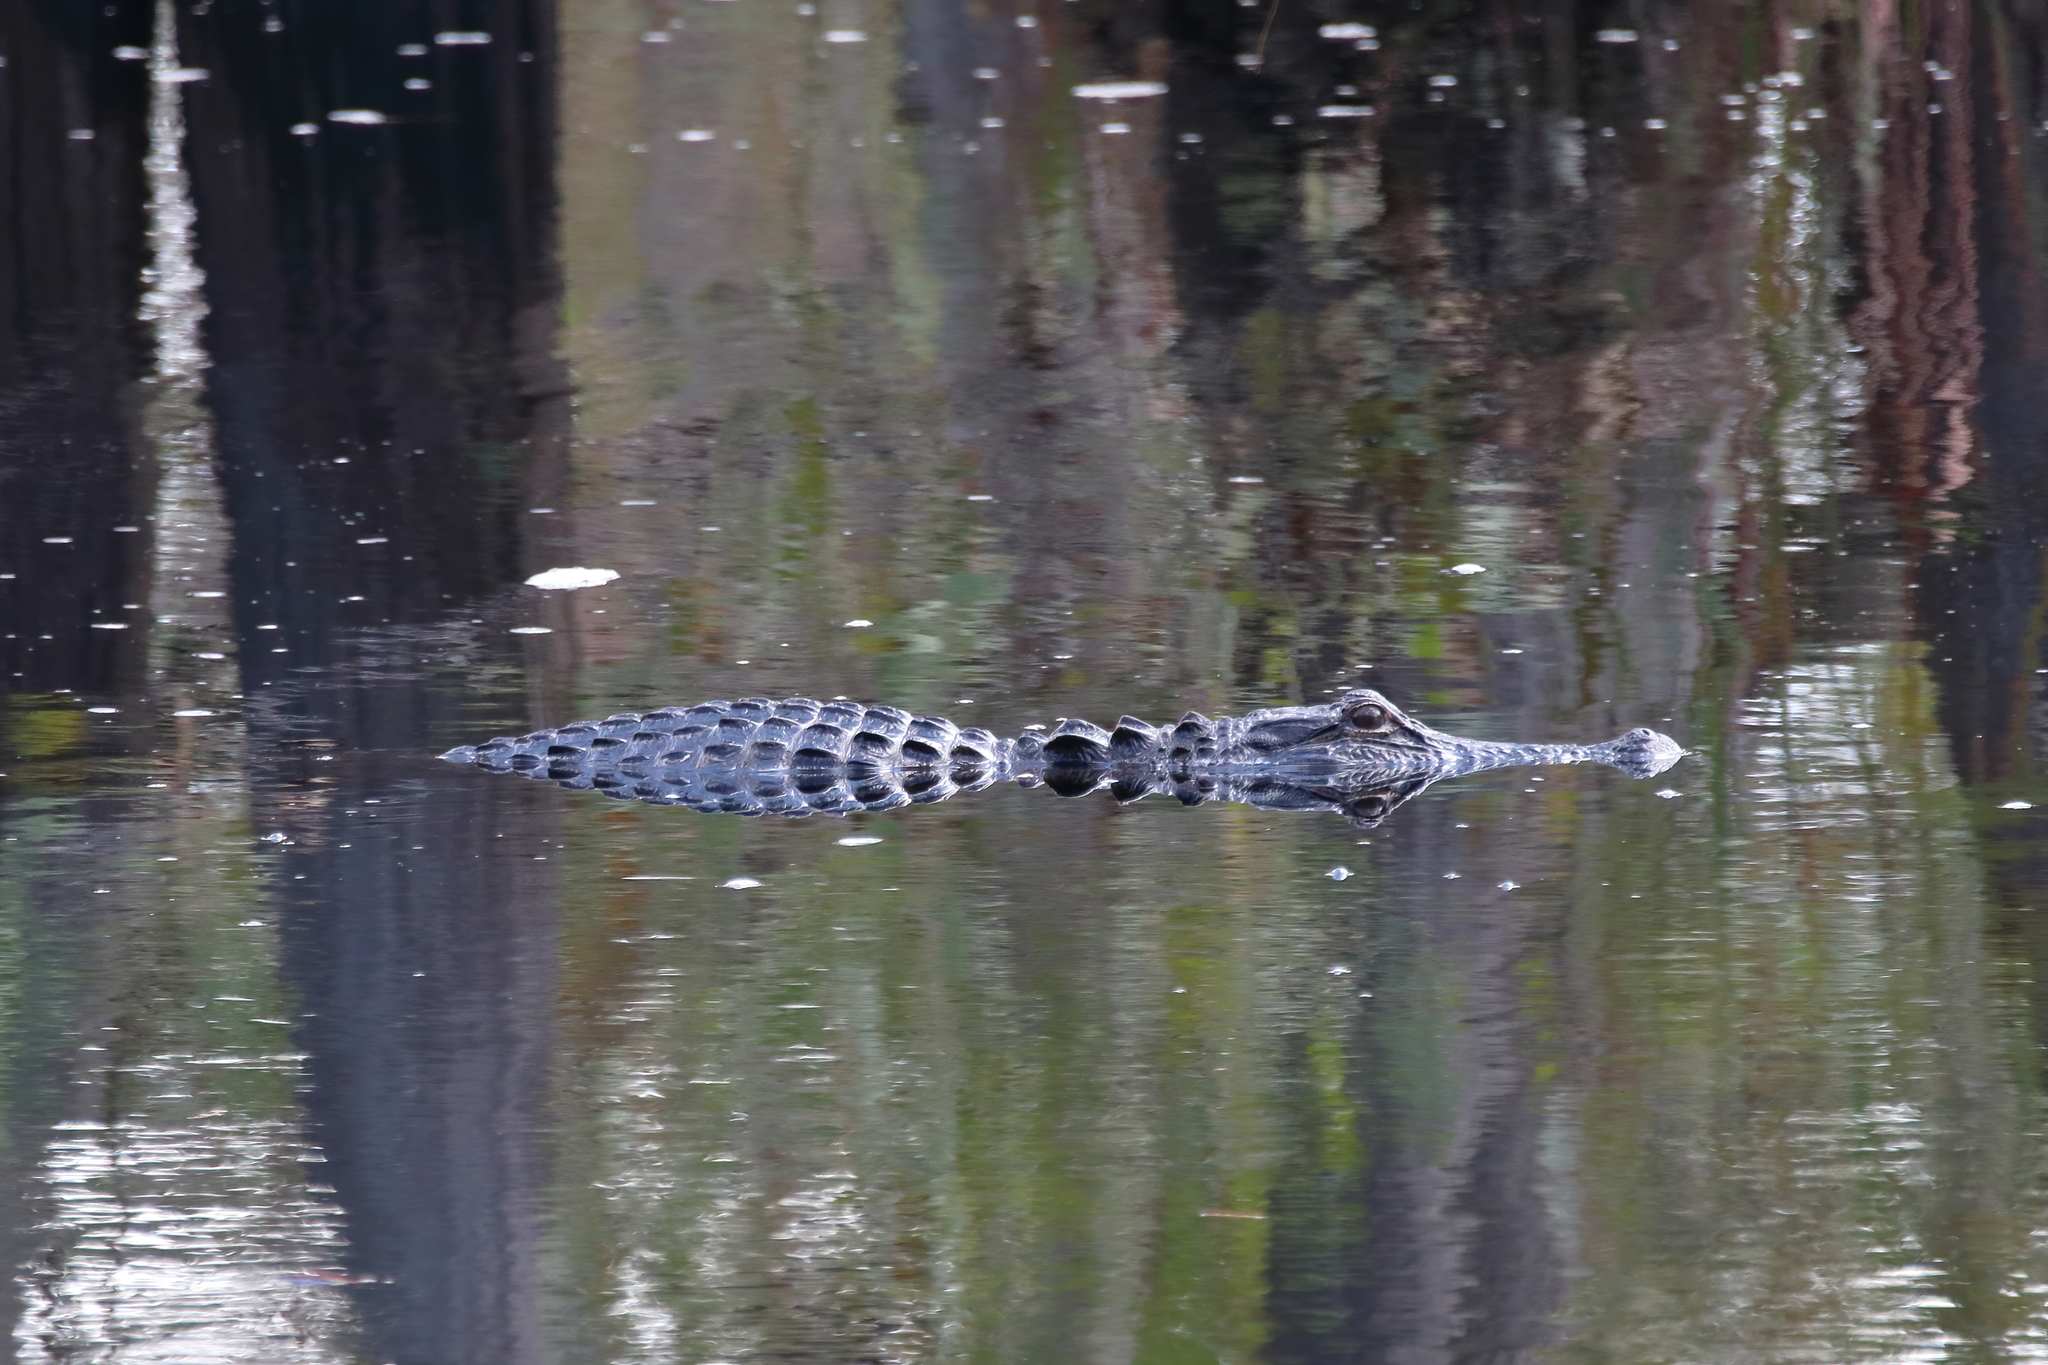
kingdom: Animalia
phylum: Chordata
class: Crocodylia
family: Alligatoridae
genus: Alligator
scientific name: Alligator mississippiensis
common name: American alligator
